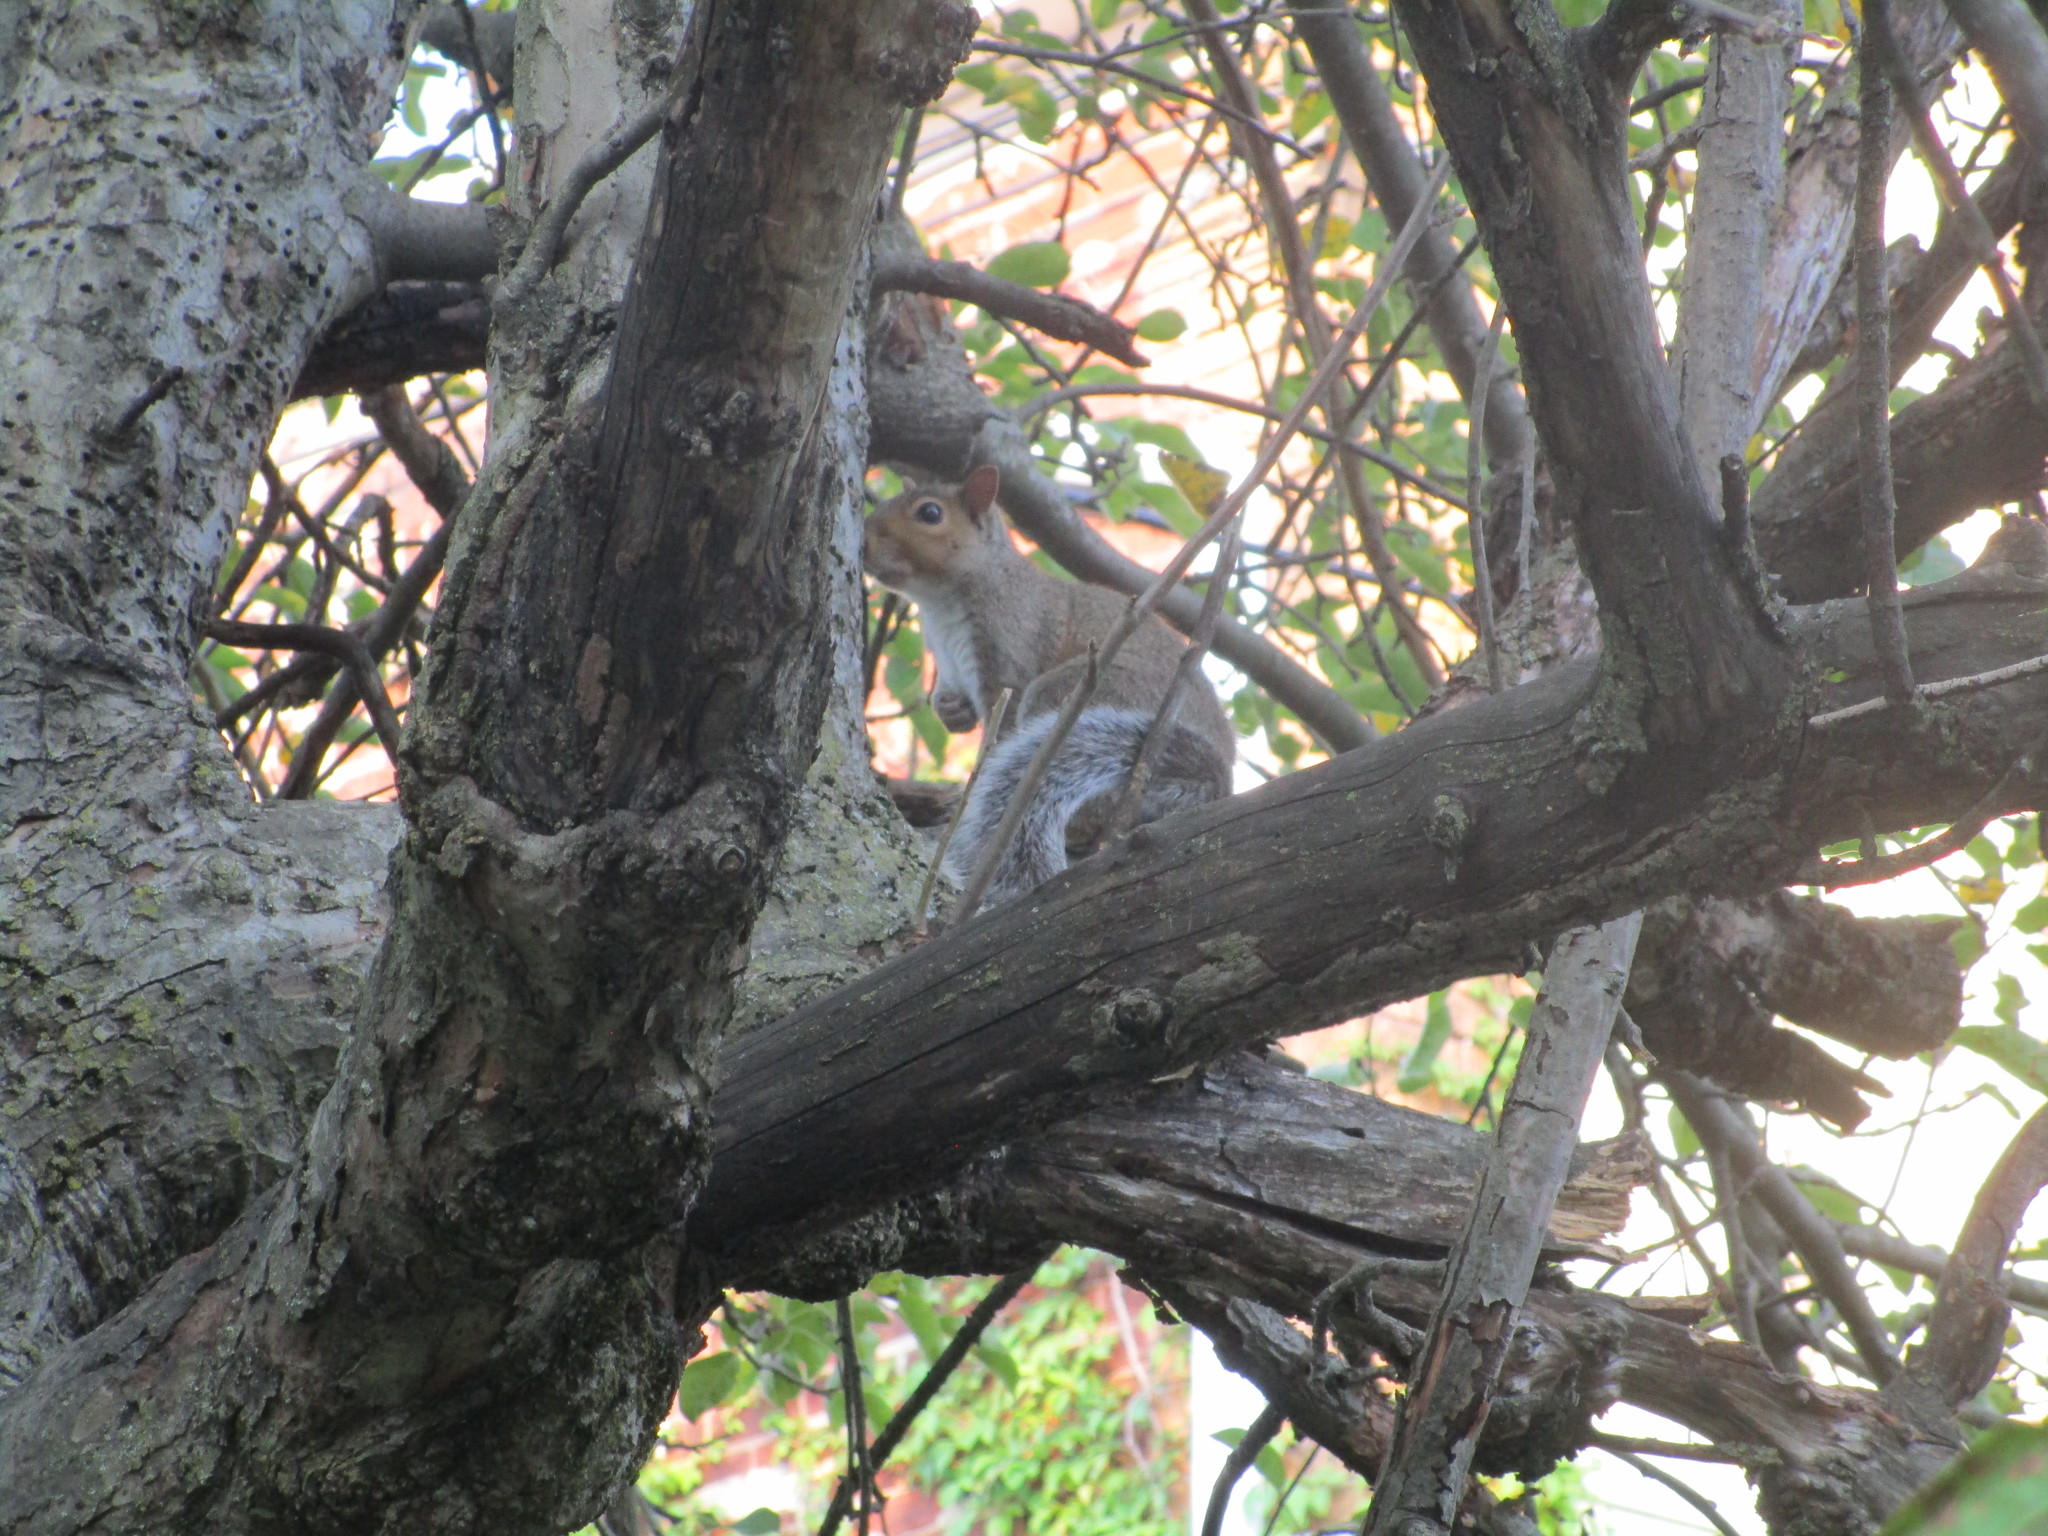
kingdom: Animalia
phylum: Chordata
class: Mammalia
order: Rodentia
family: Sciuridae
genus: Sciurus
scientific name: Sciurus carolinensis
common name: Eastern gray squirrel
